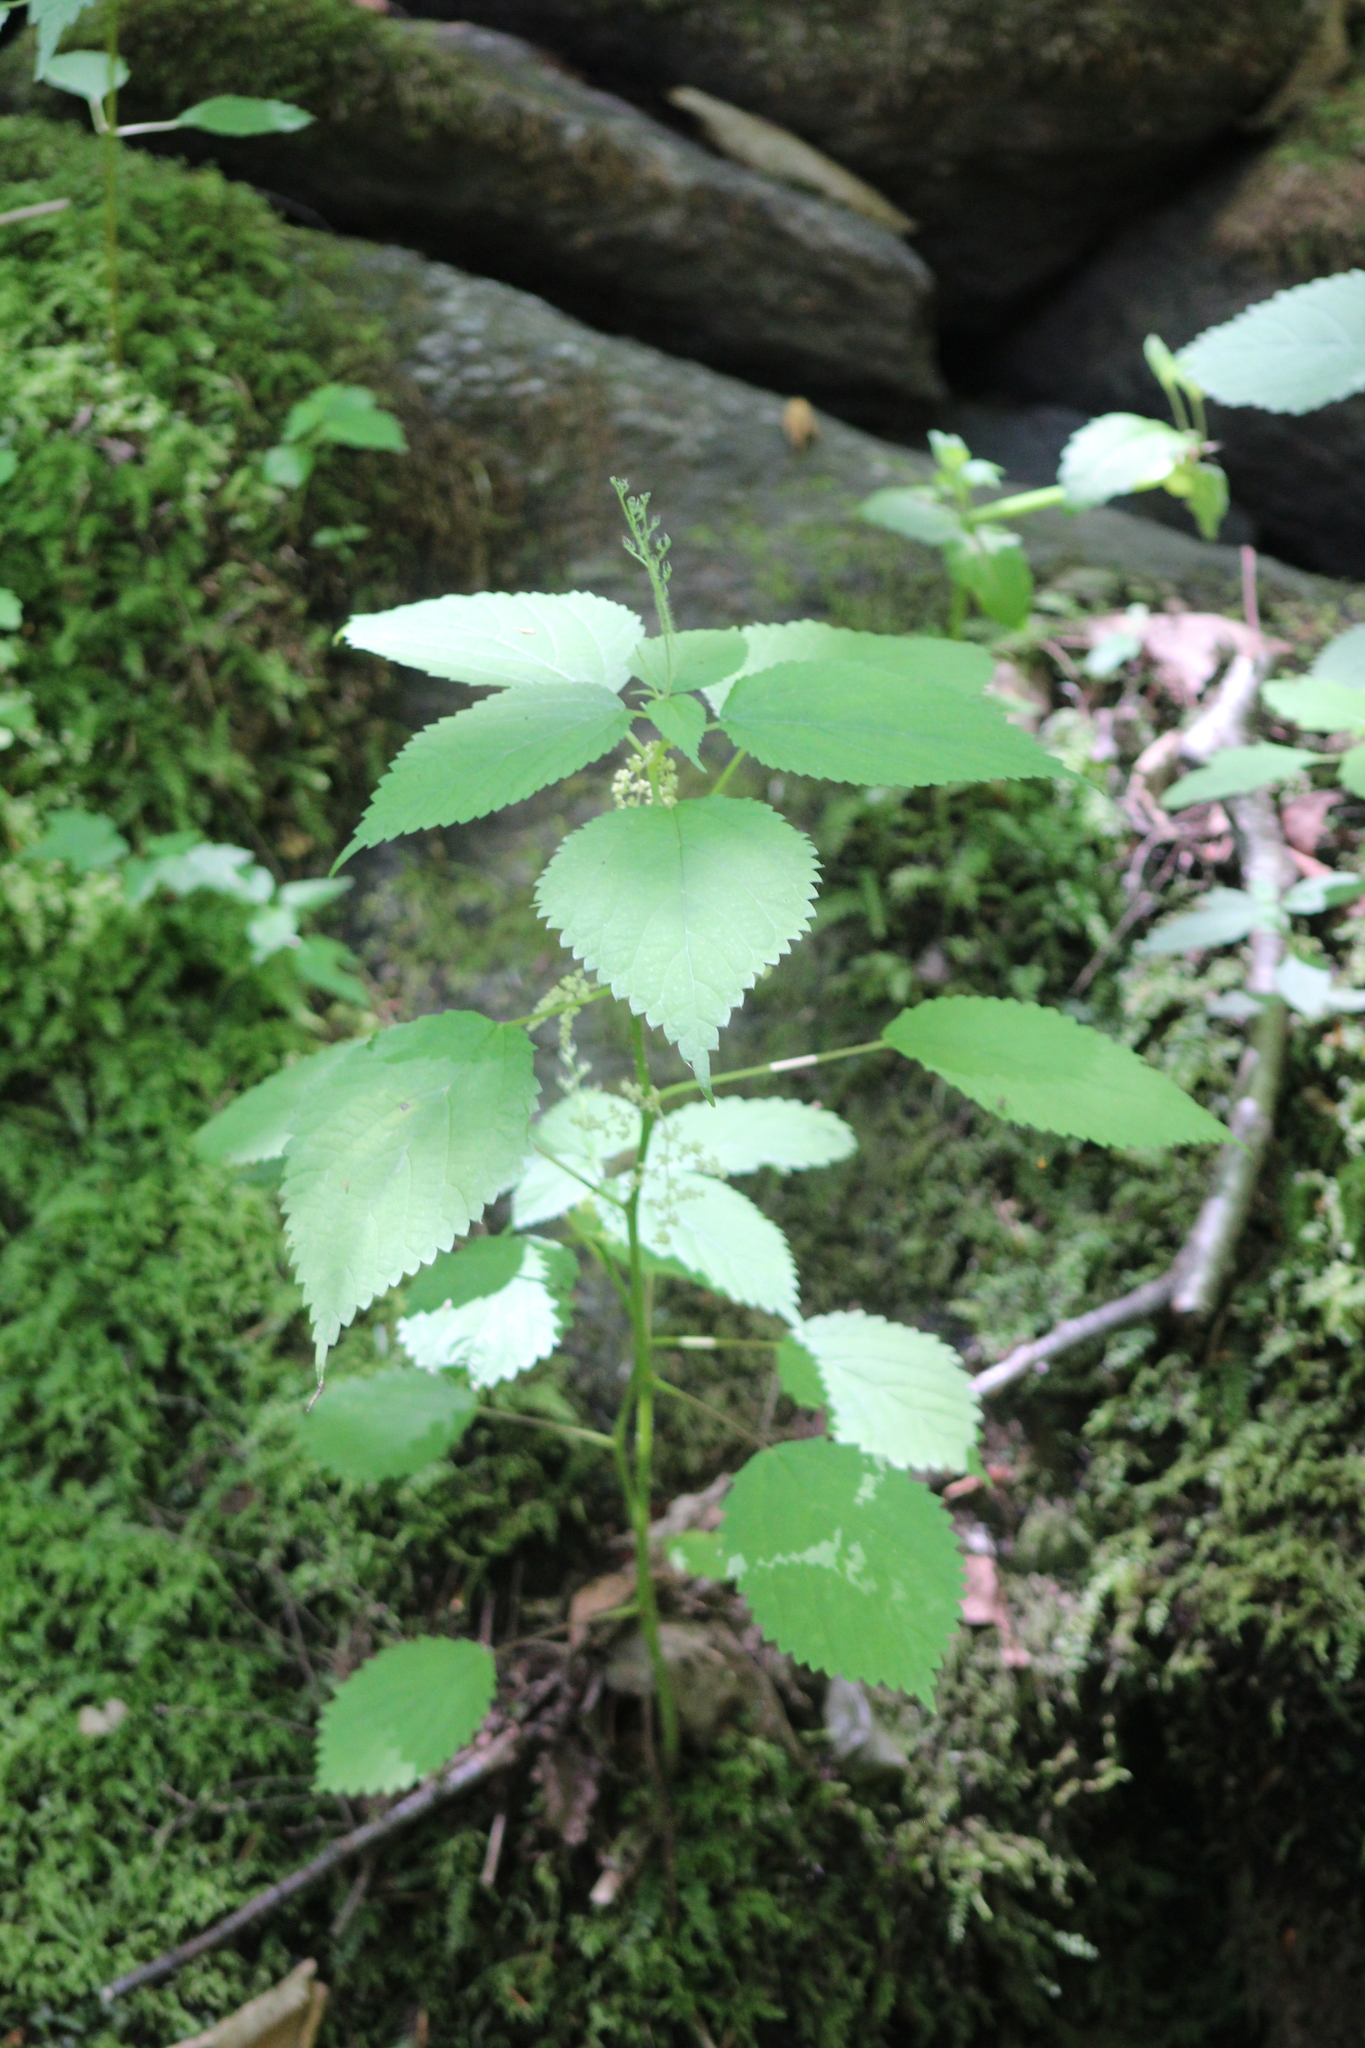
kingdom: Plantae
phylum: Tracheophyta
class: Magnoliopsida
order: Rosales
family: Urticaceae
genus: Laportea
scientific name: Laportea canadensis
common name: Canada nettle
